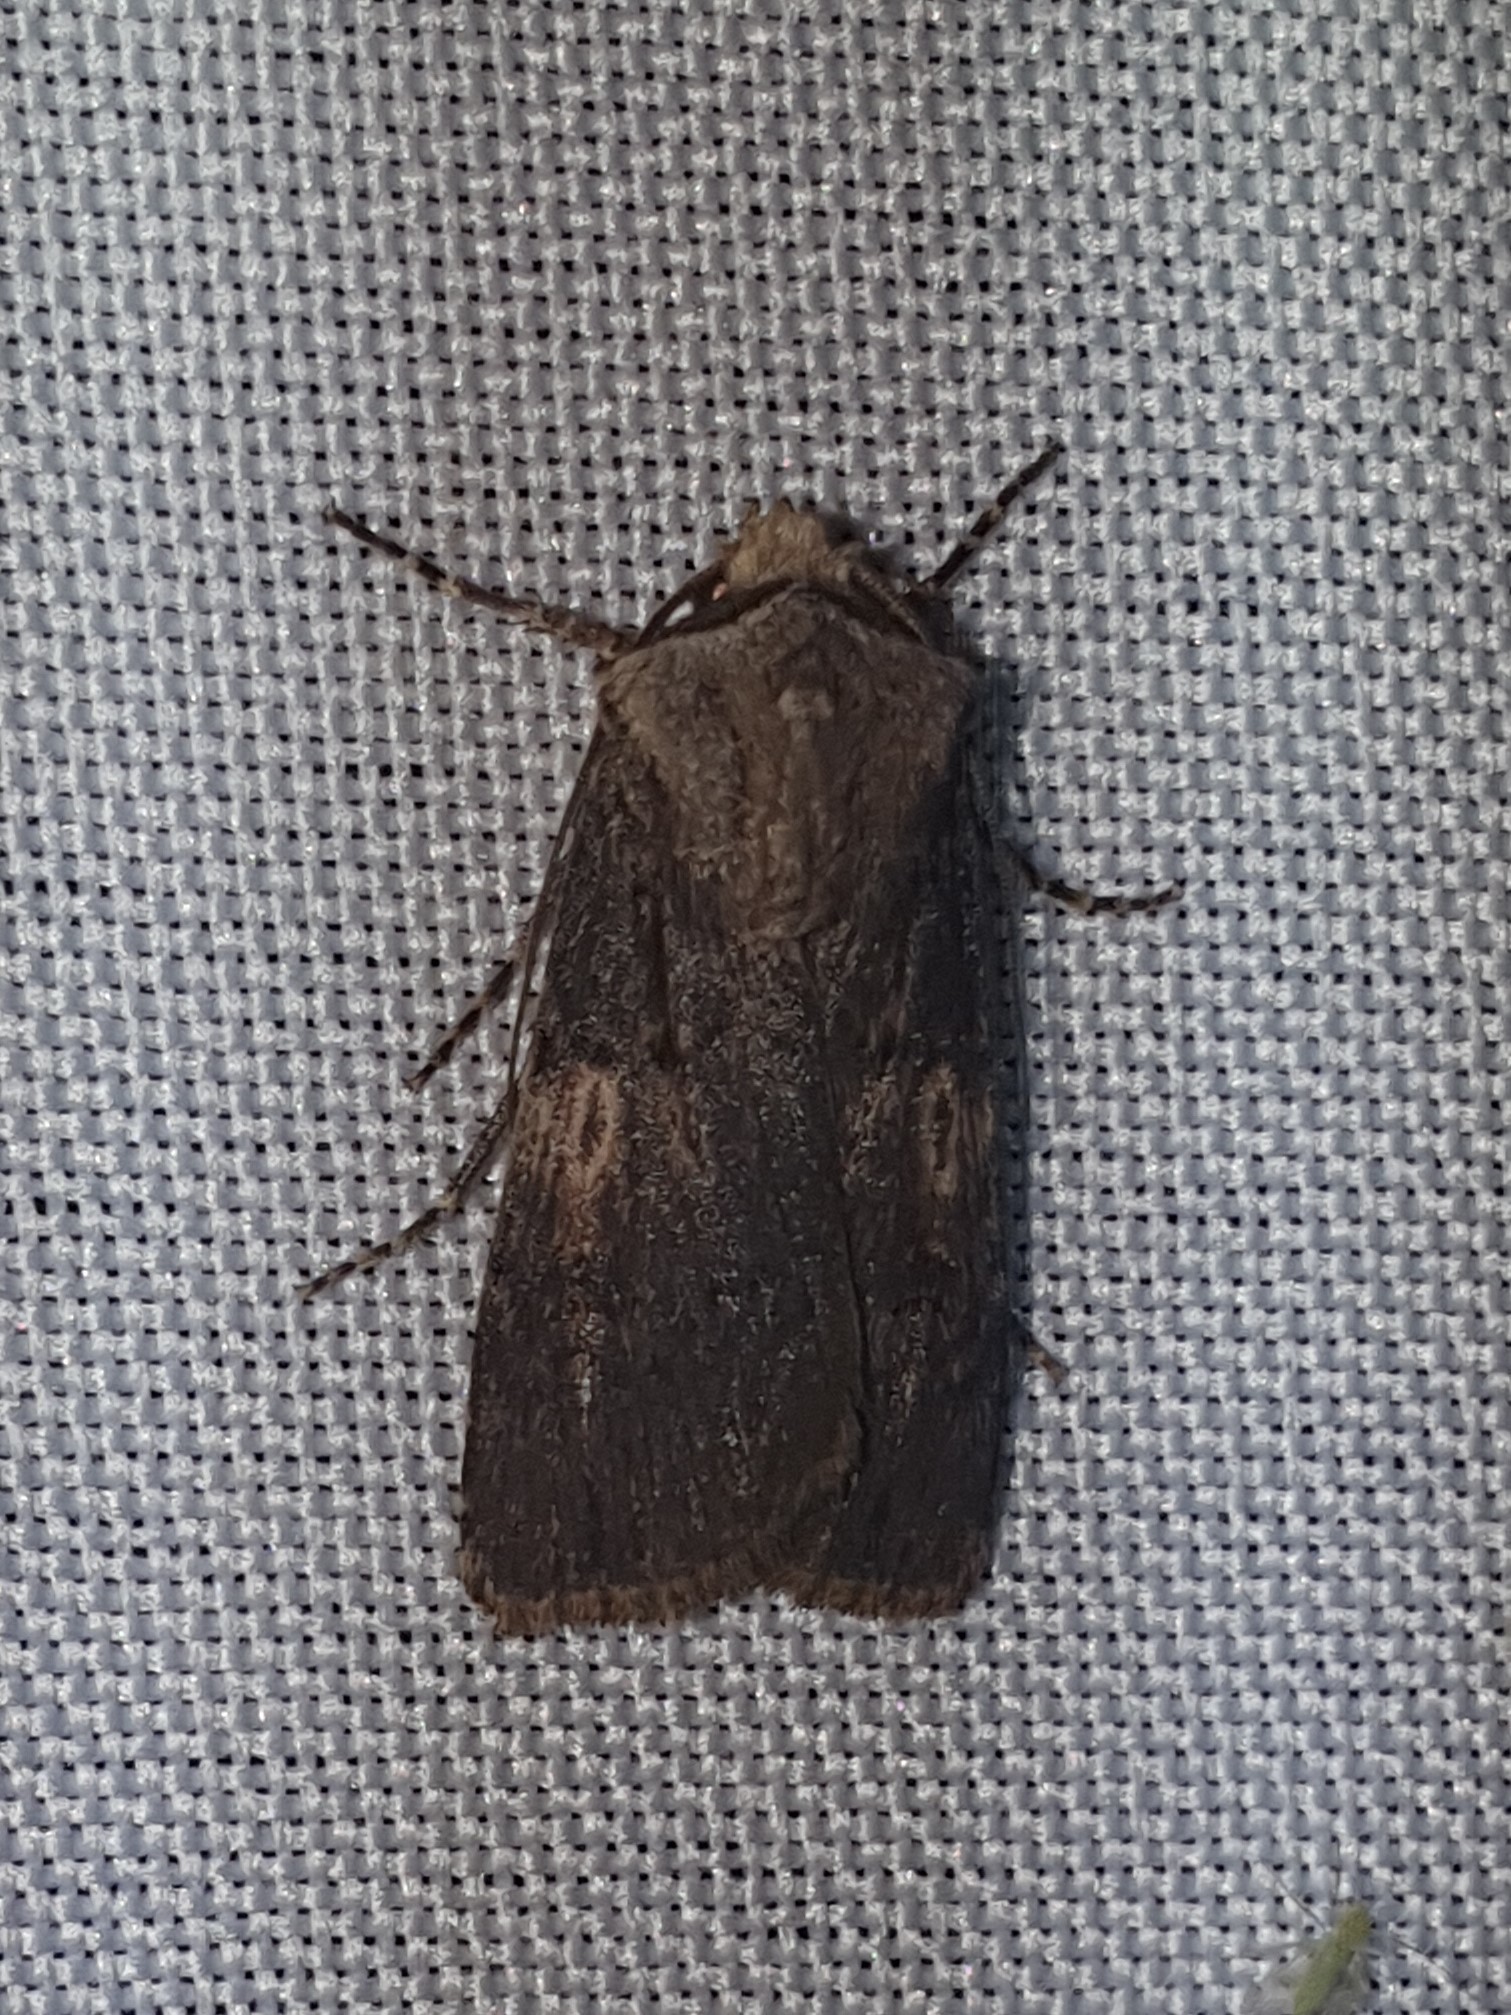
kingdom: Animalia
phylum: Arthropoda
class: Insecta
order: Lepidoptera
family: Noctuidae
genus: Agrotis
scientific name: Agrotis puta
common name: Shuttle-shaped dart
